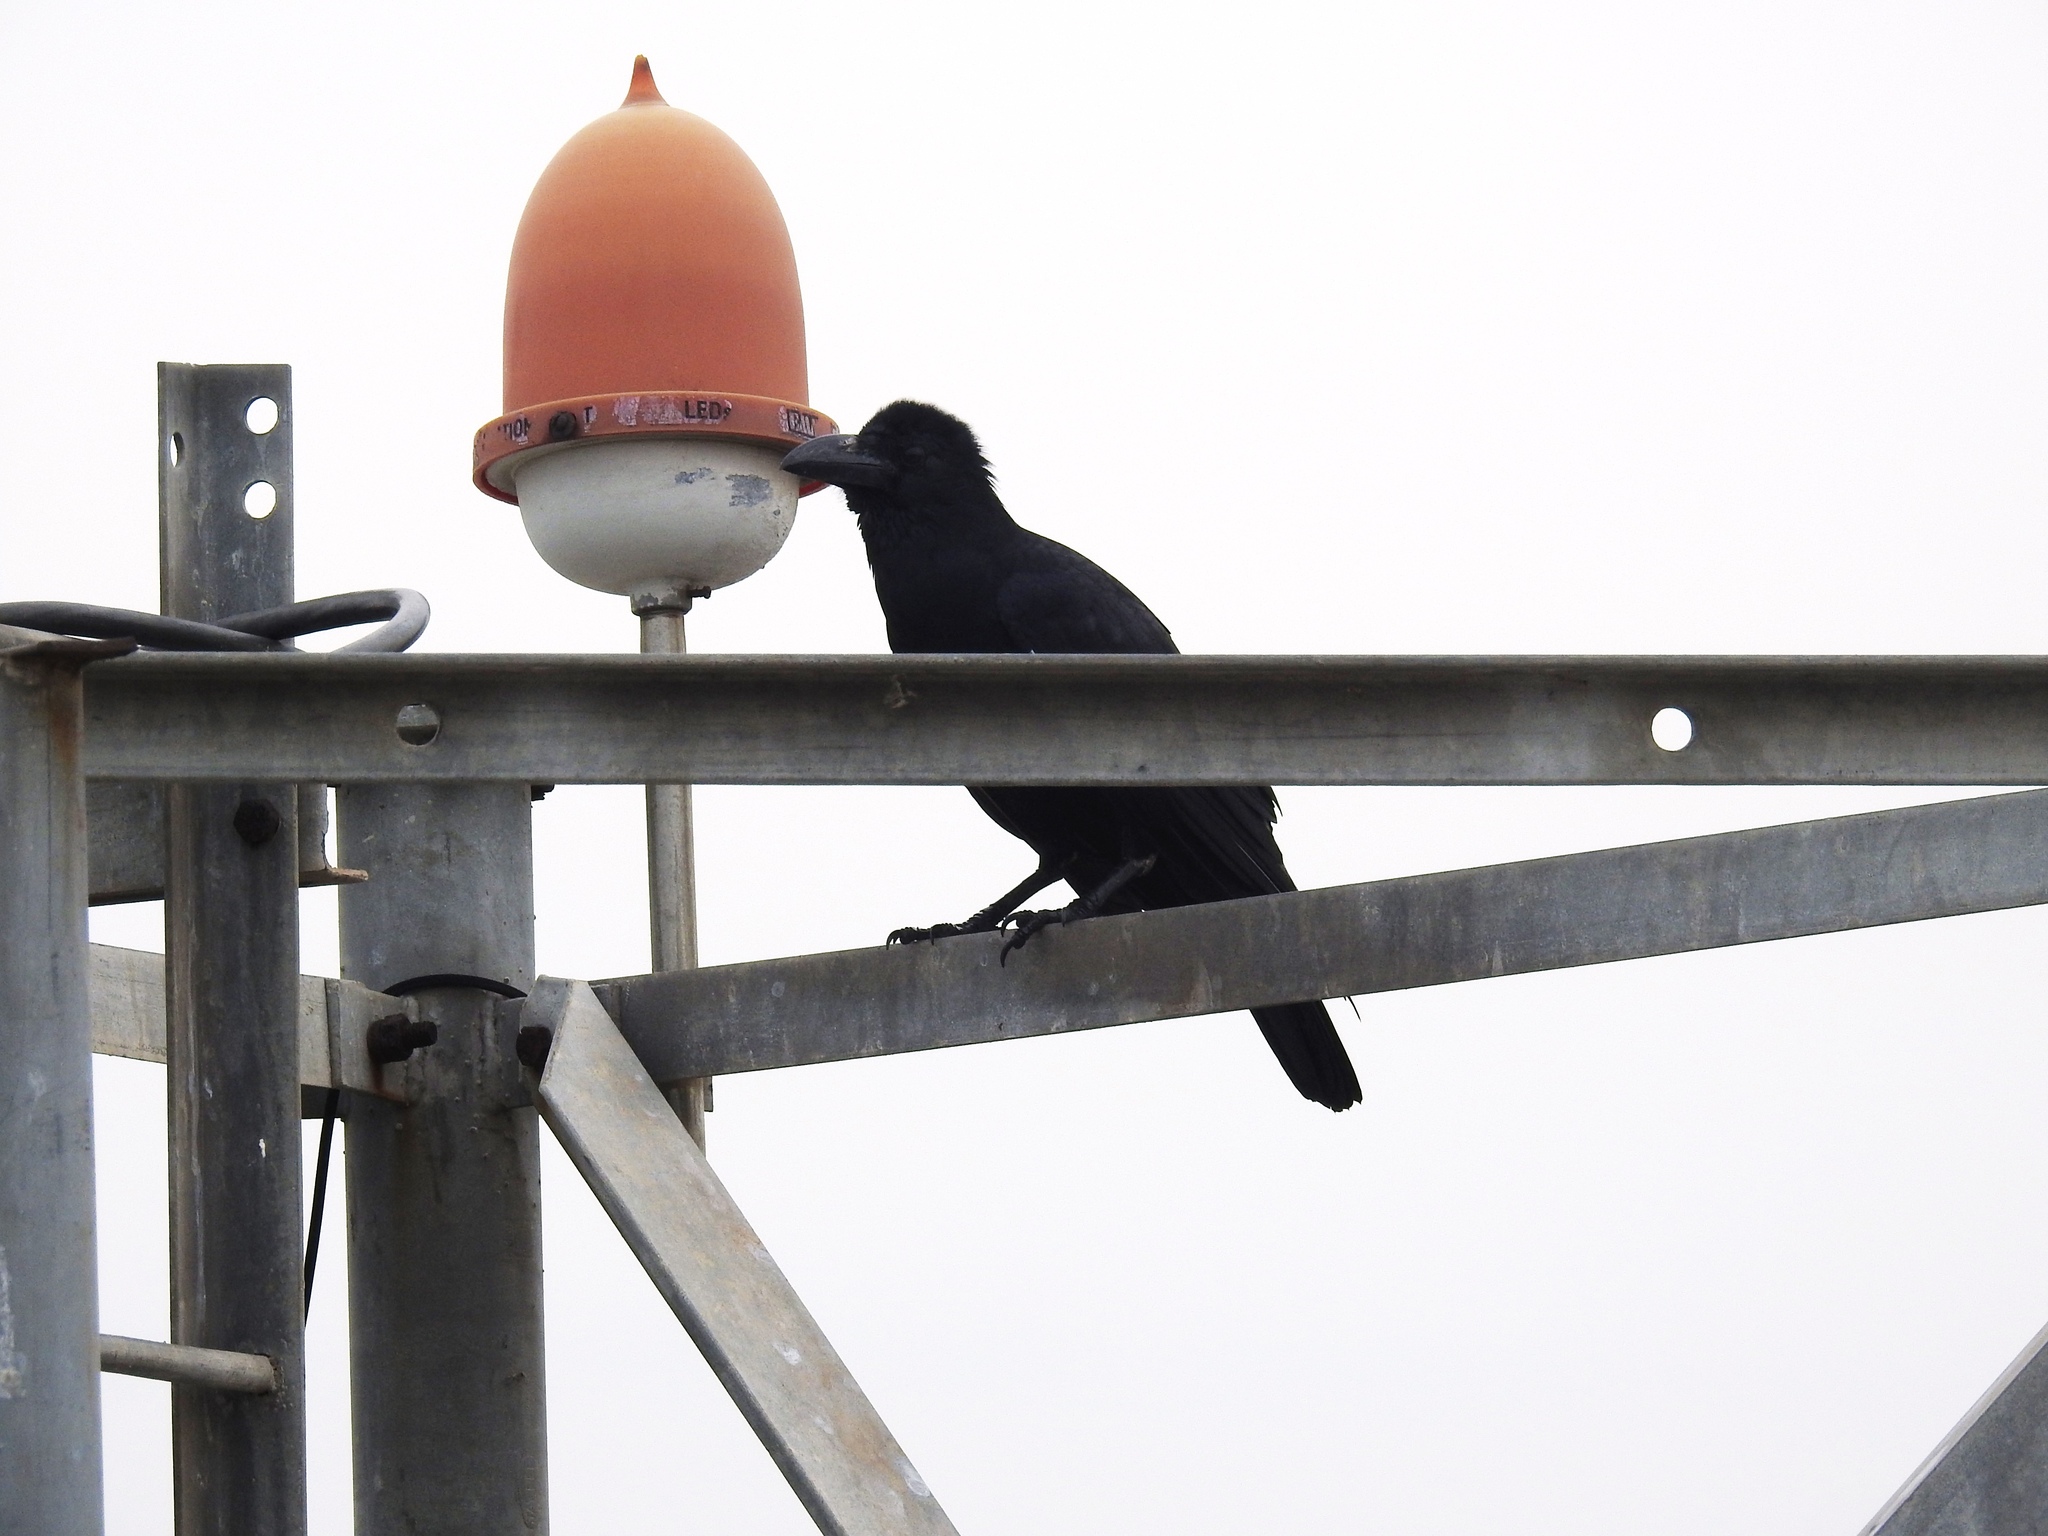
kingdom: Animalia
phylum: Chordata
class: Aves
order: Passeriformes
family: Corvidae
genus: Corvus
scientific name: Corvus macrorhynchos
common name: Large-billed crow
